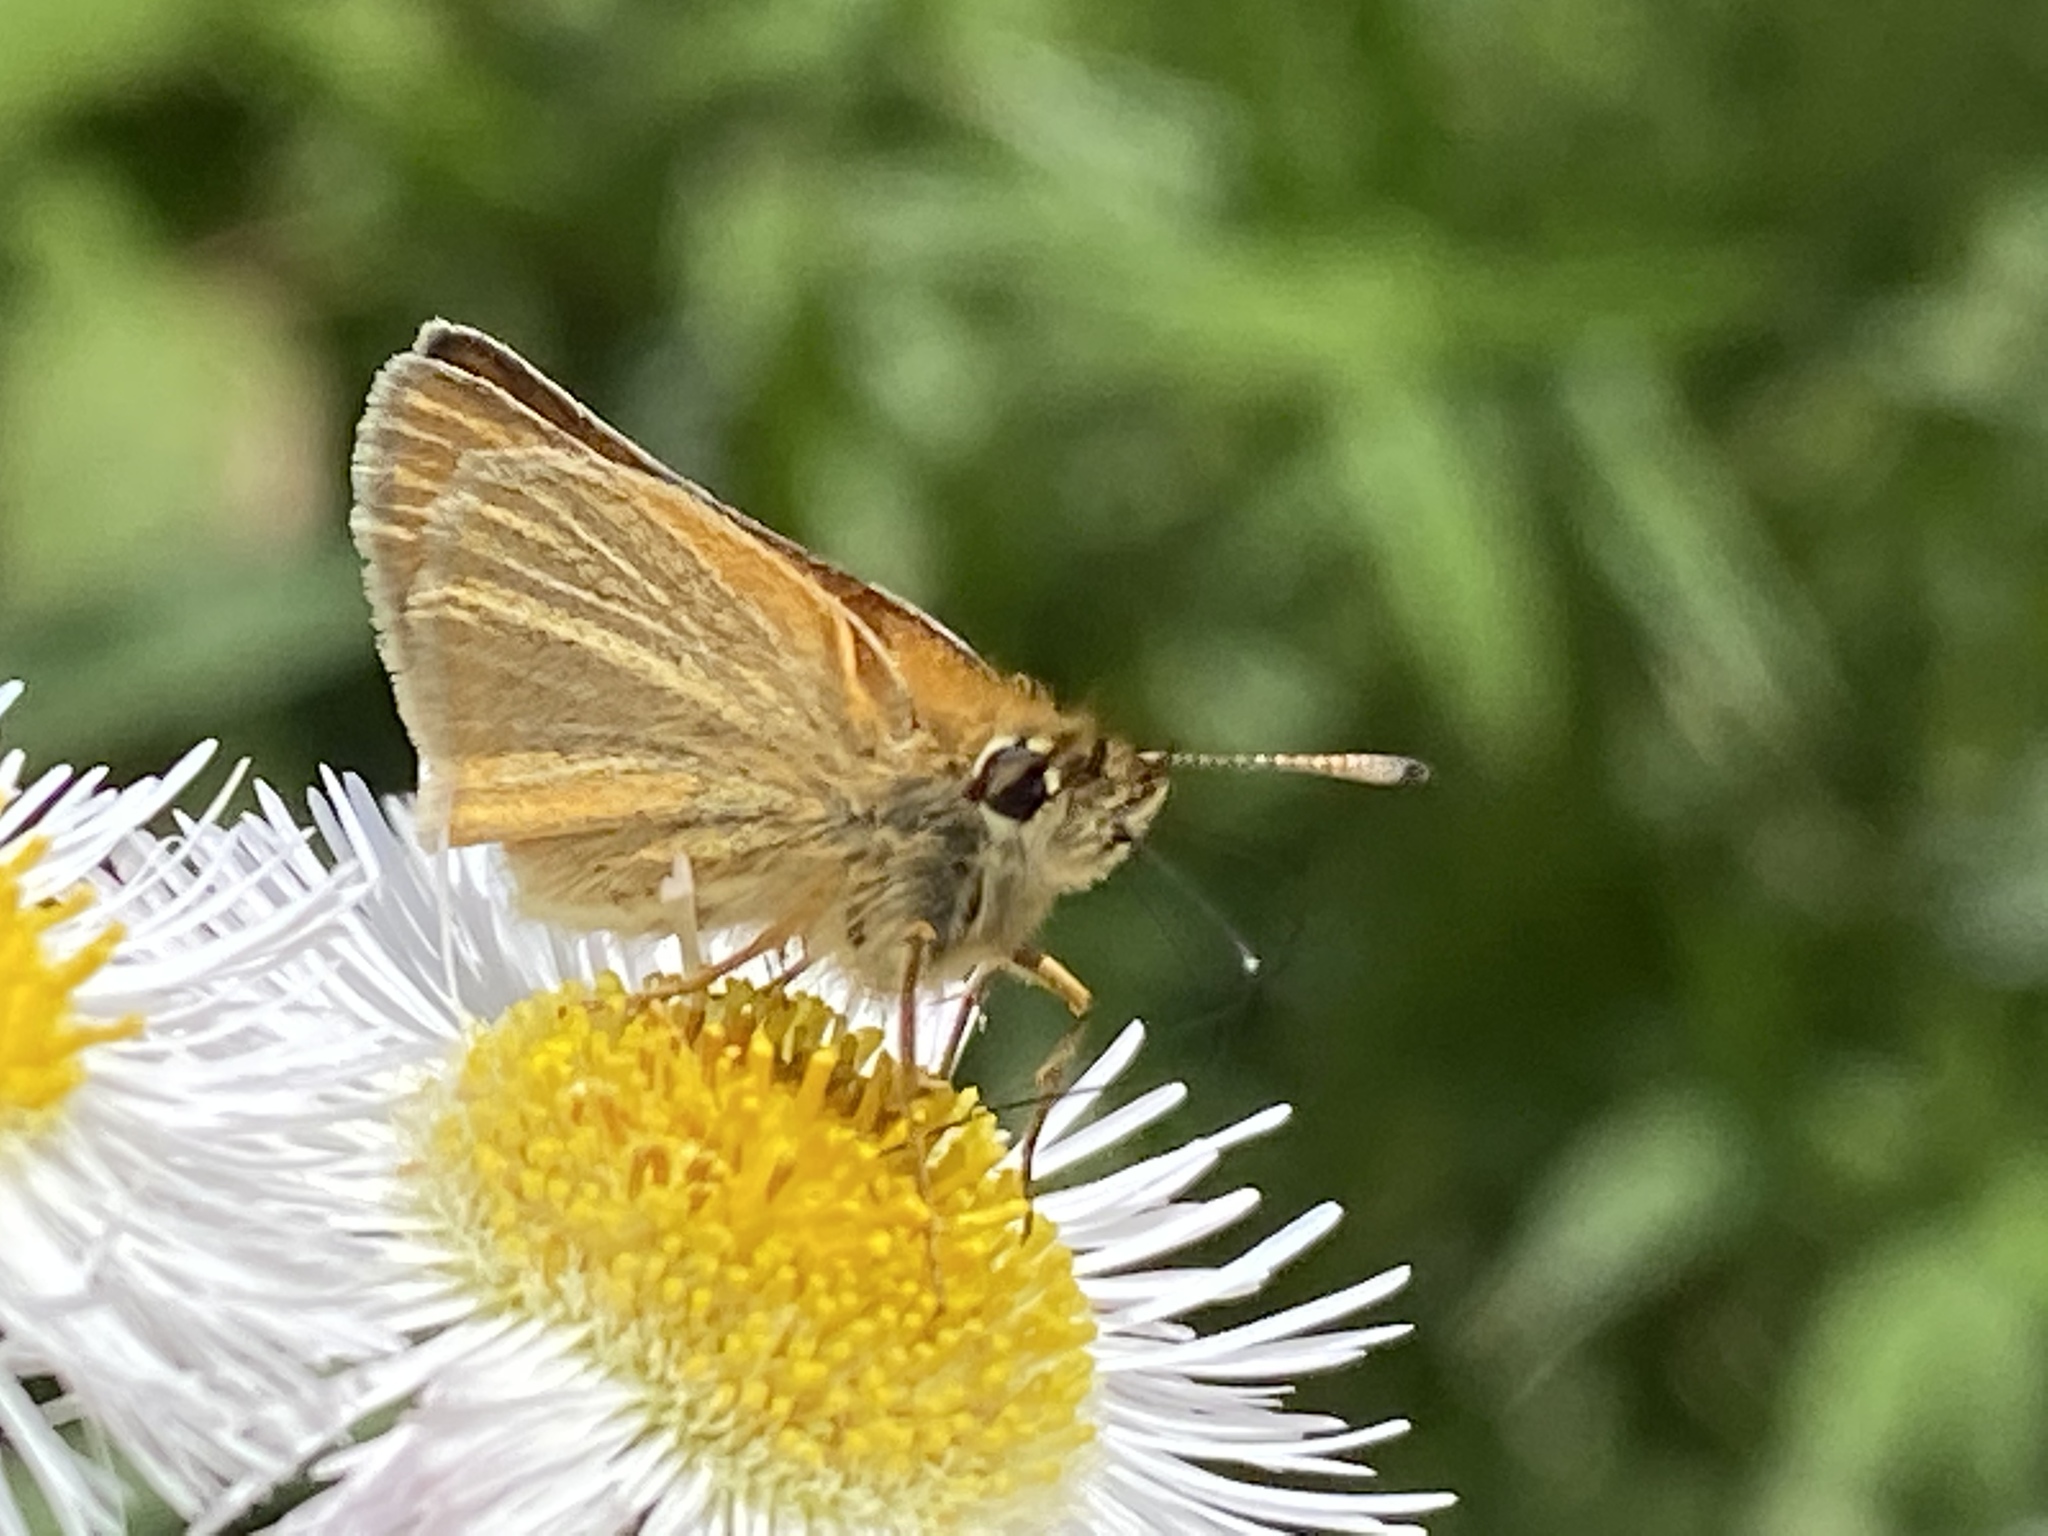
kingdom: Animalia
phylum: Arthropoda
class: Insecta
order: Lepidoptera
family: Hesperiidae
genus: Thymelicus
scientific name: Thymelicus lineola
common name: Essex skipper
